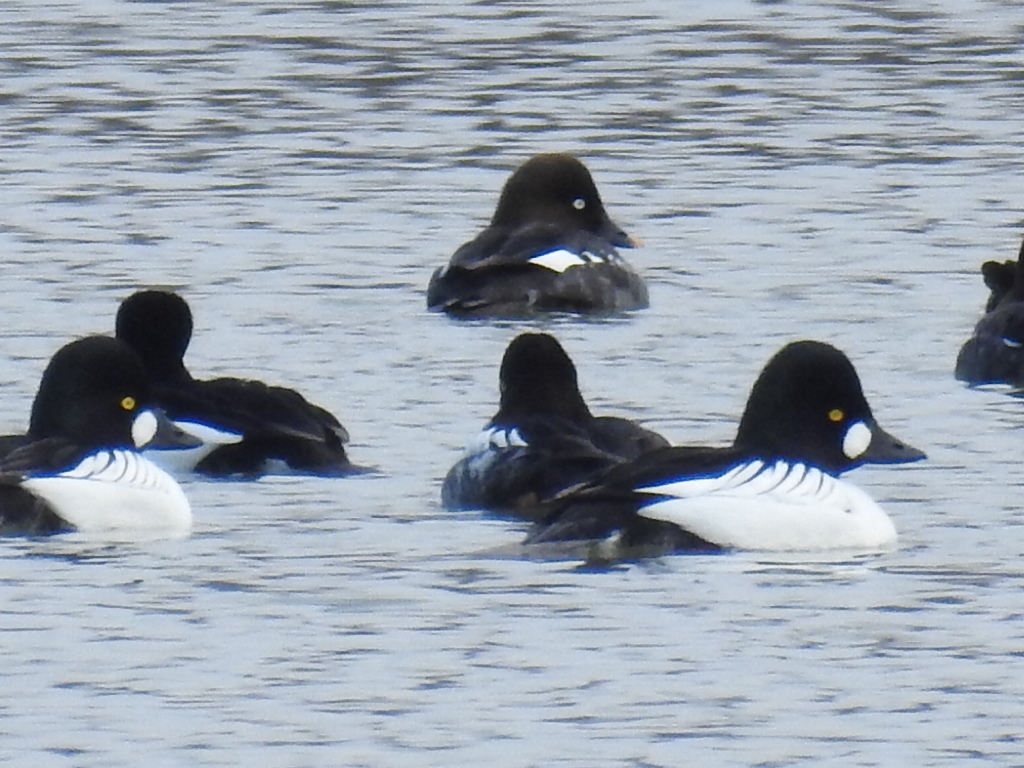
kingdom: Animalia
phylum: Chordata
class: Aves
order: Anseriformes
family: Anatidae
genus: Bucephala
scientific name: Bucephala clangula
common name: Common goldeneye
